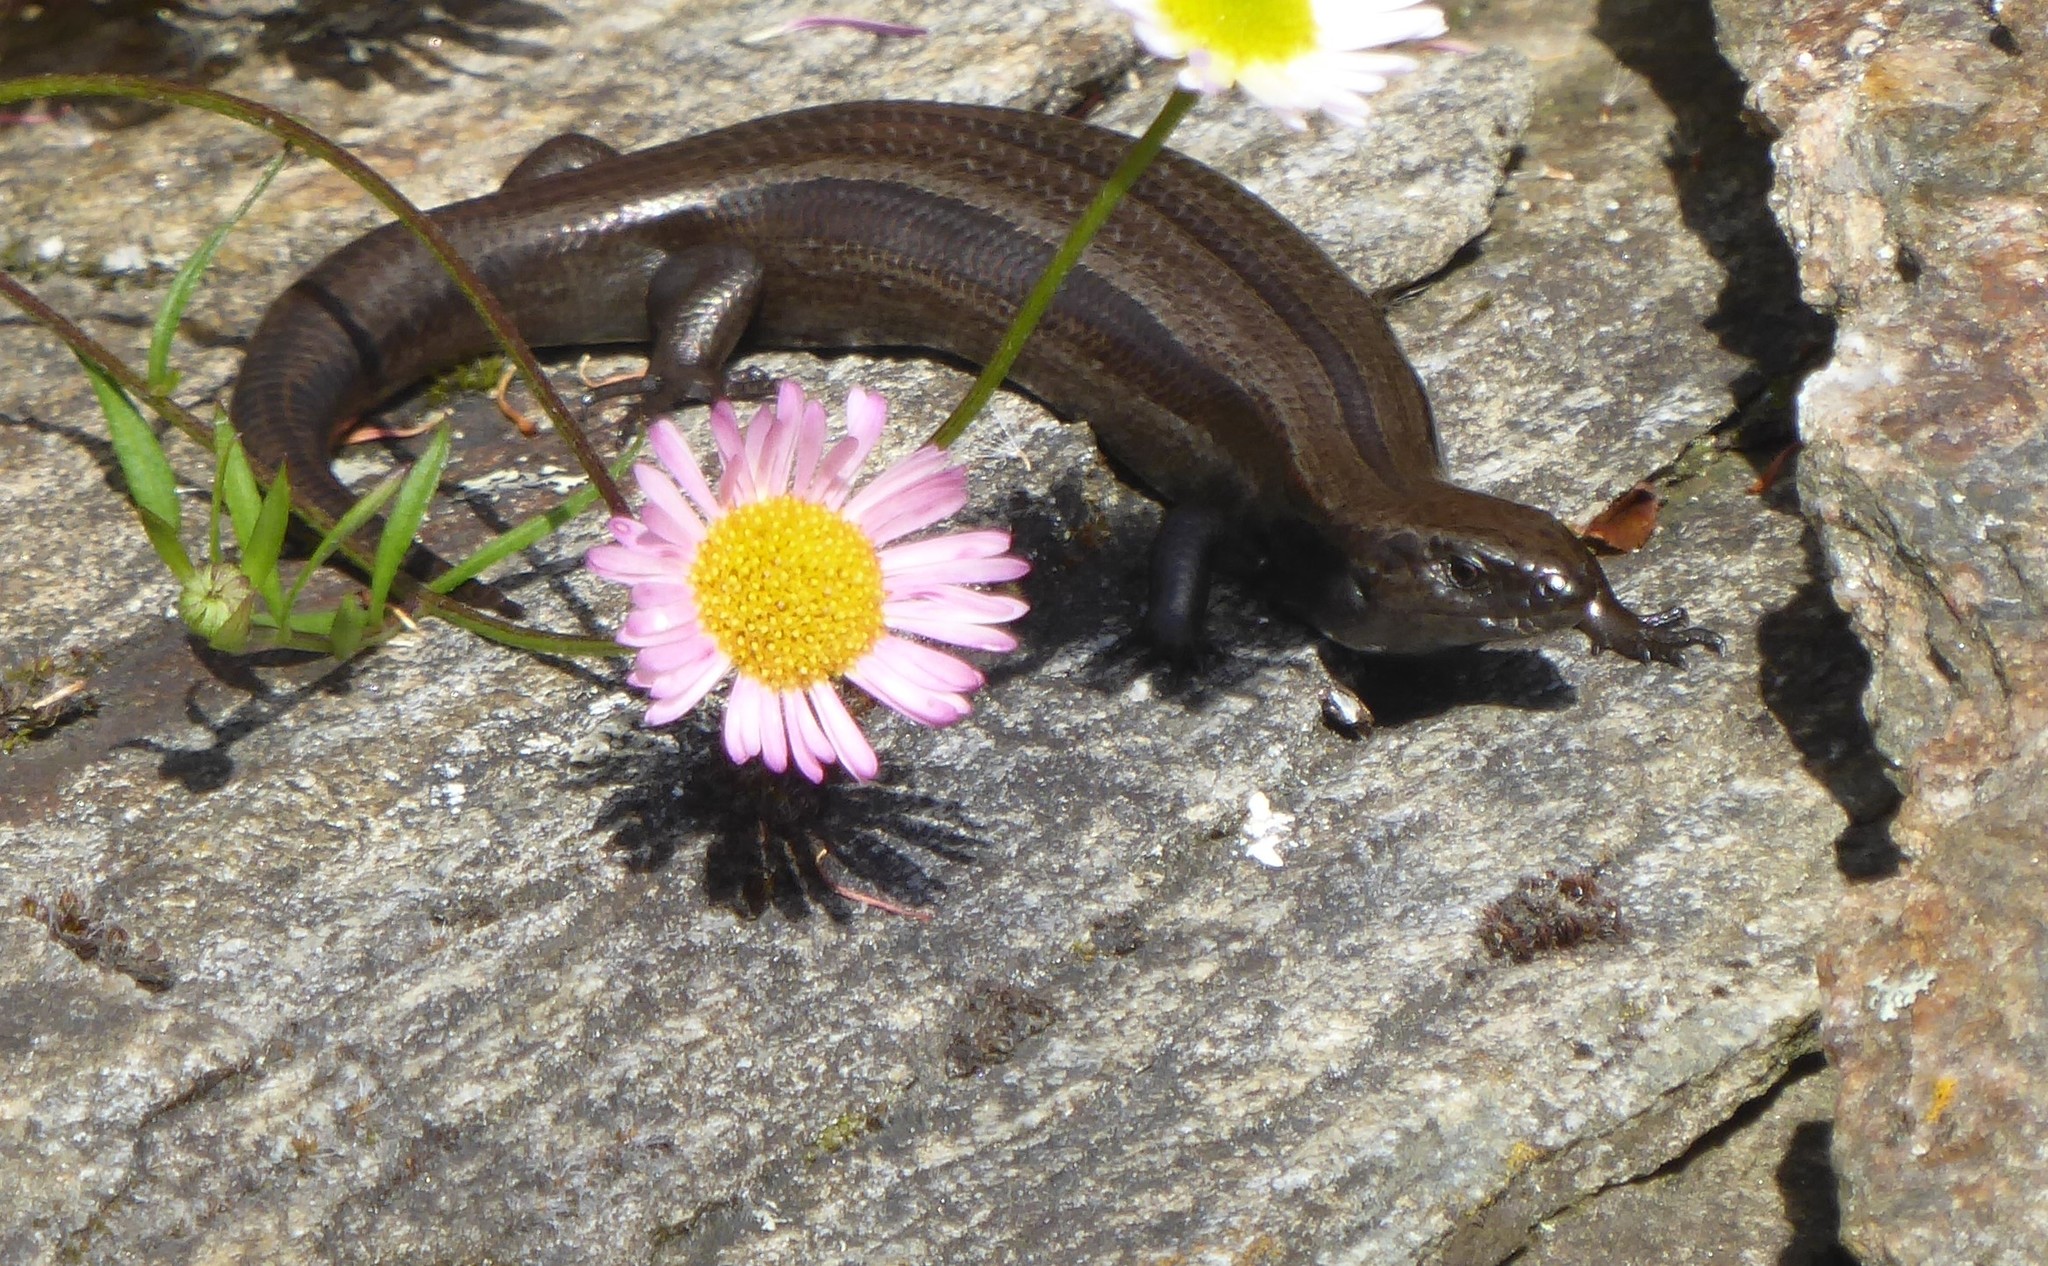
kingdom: Animalia
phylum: Chordata
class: Squamata
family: Scincidae
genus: Oligosoma
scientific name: Oligosoma polychroma
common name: Common new zealand skink
